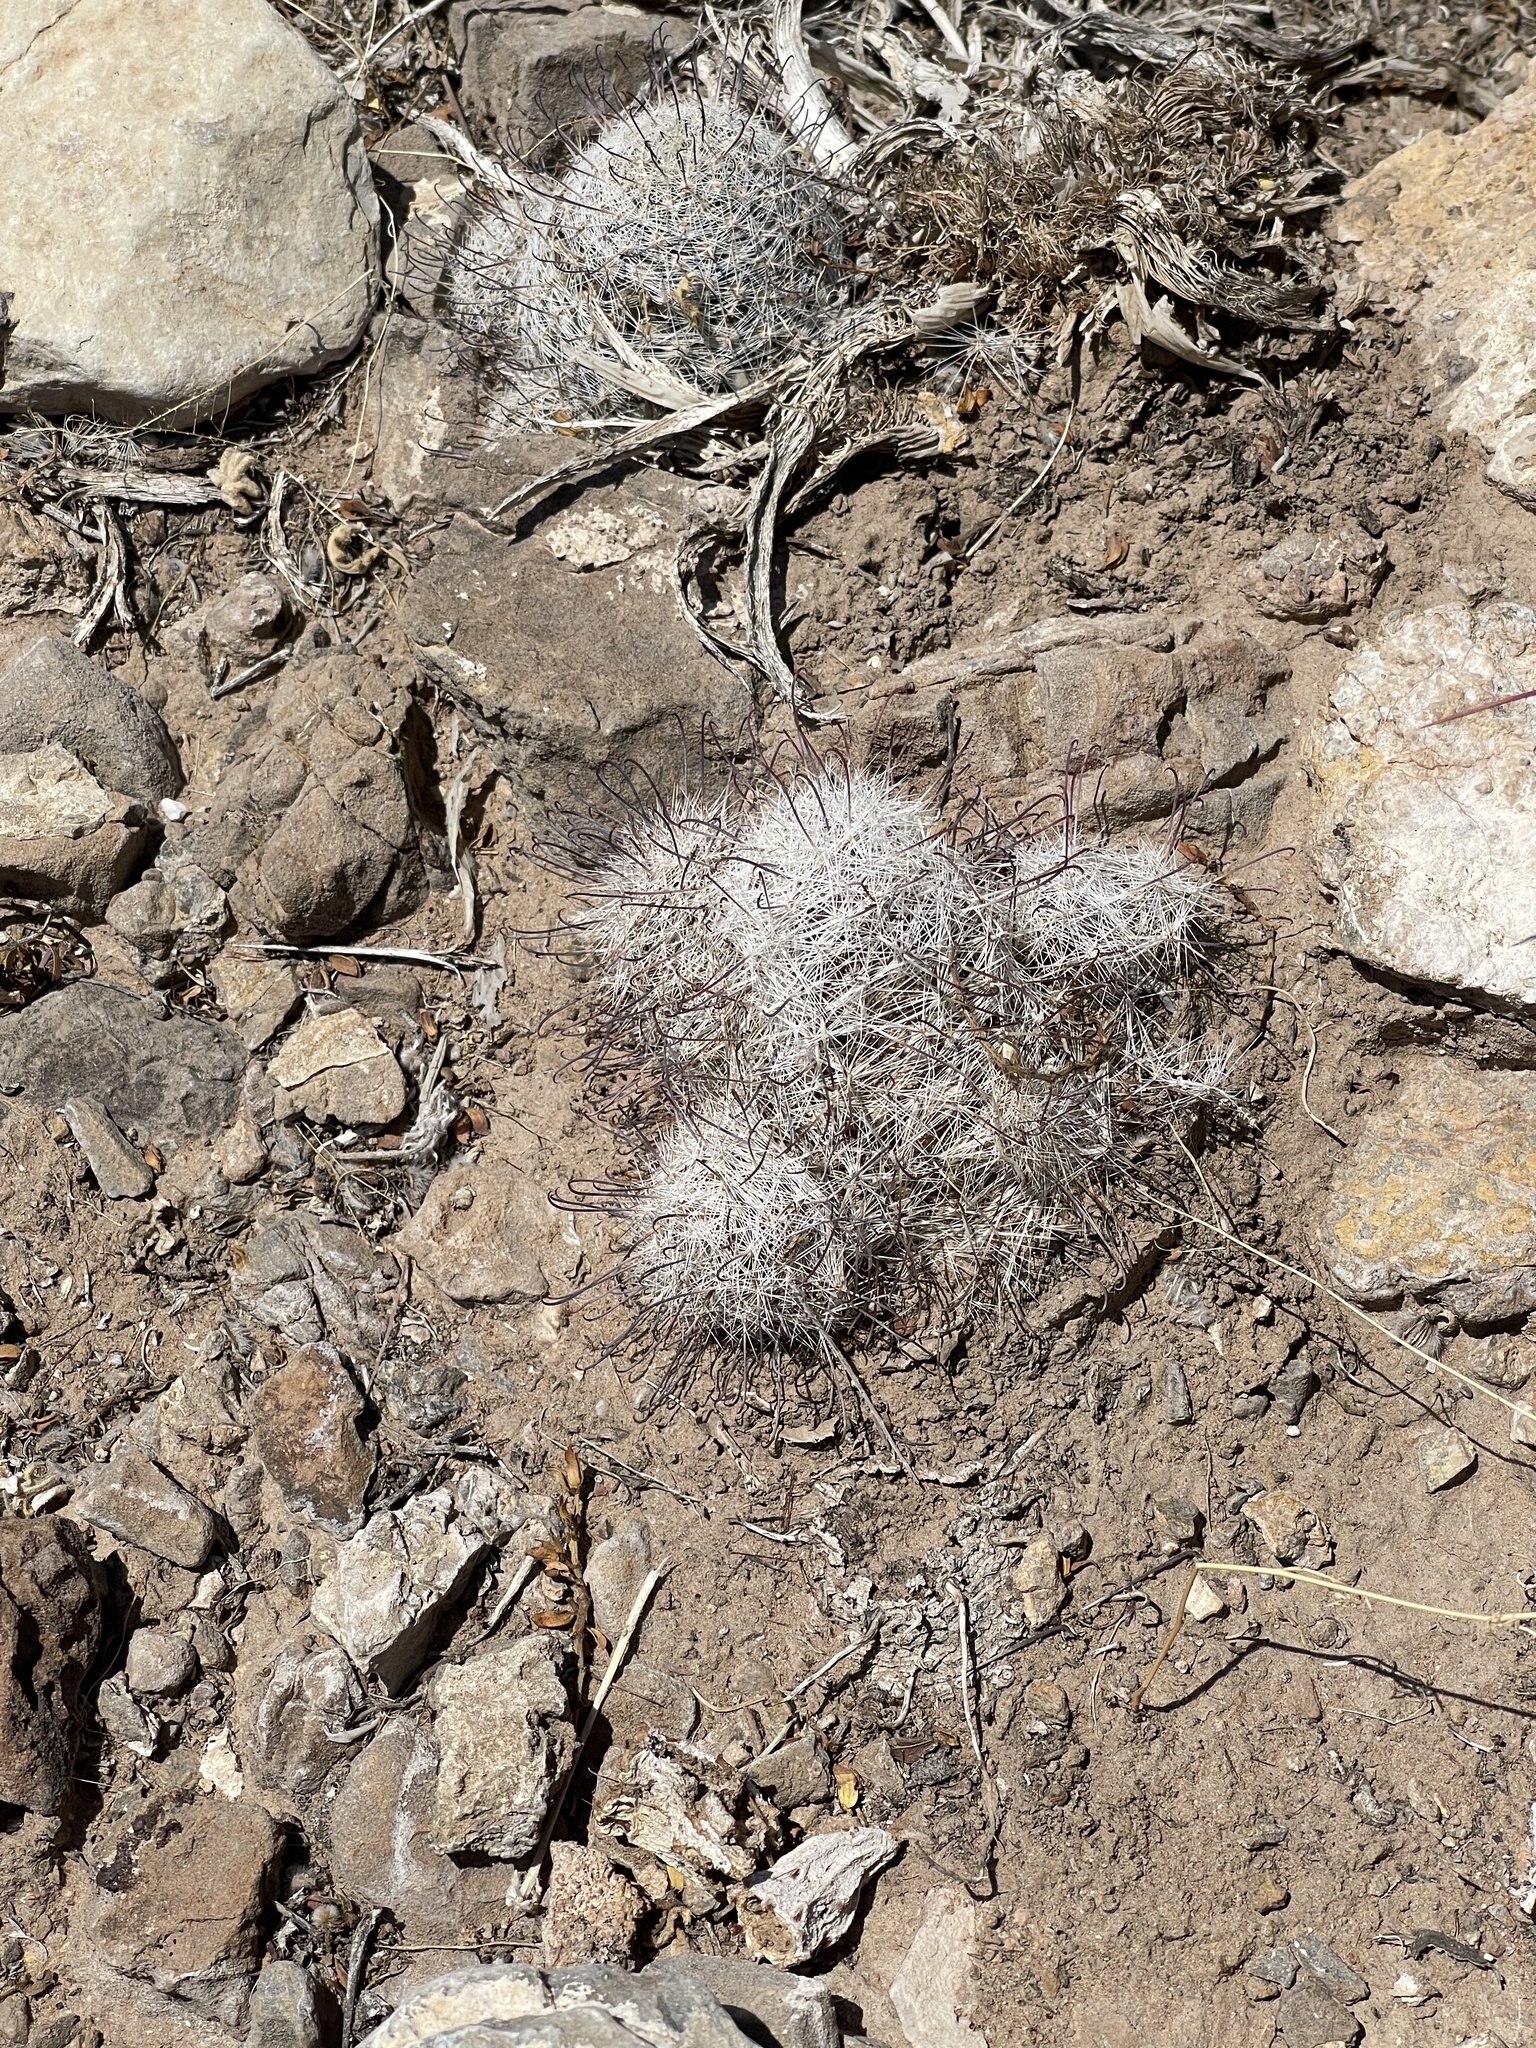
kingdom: Plantae
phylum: Tracheophyta
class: Magnoliopsida
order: Caryophyllales
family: Cactaceae
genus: Cochemiea
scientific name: Cochemiea grahamii
